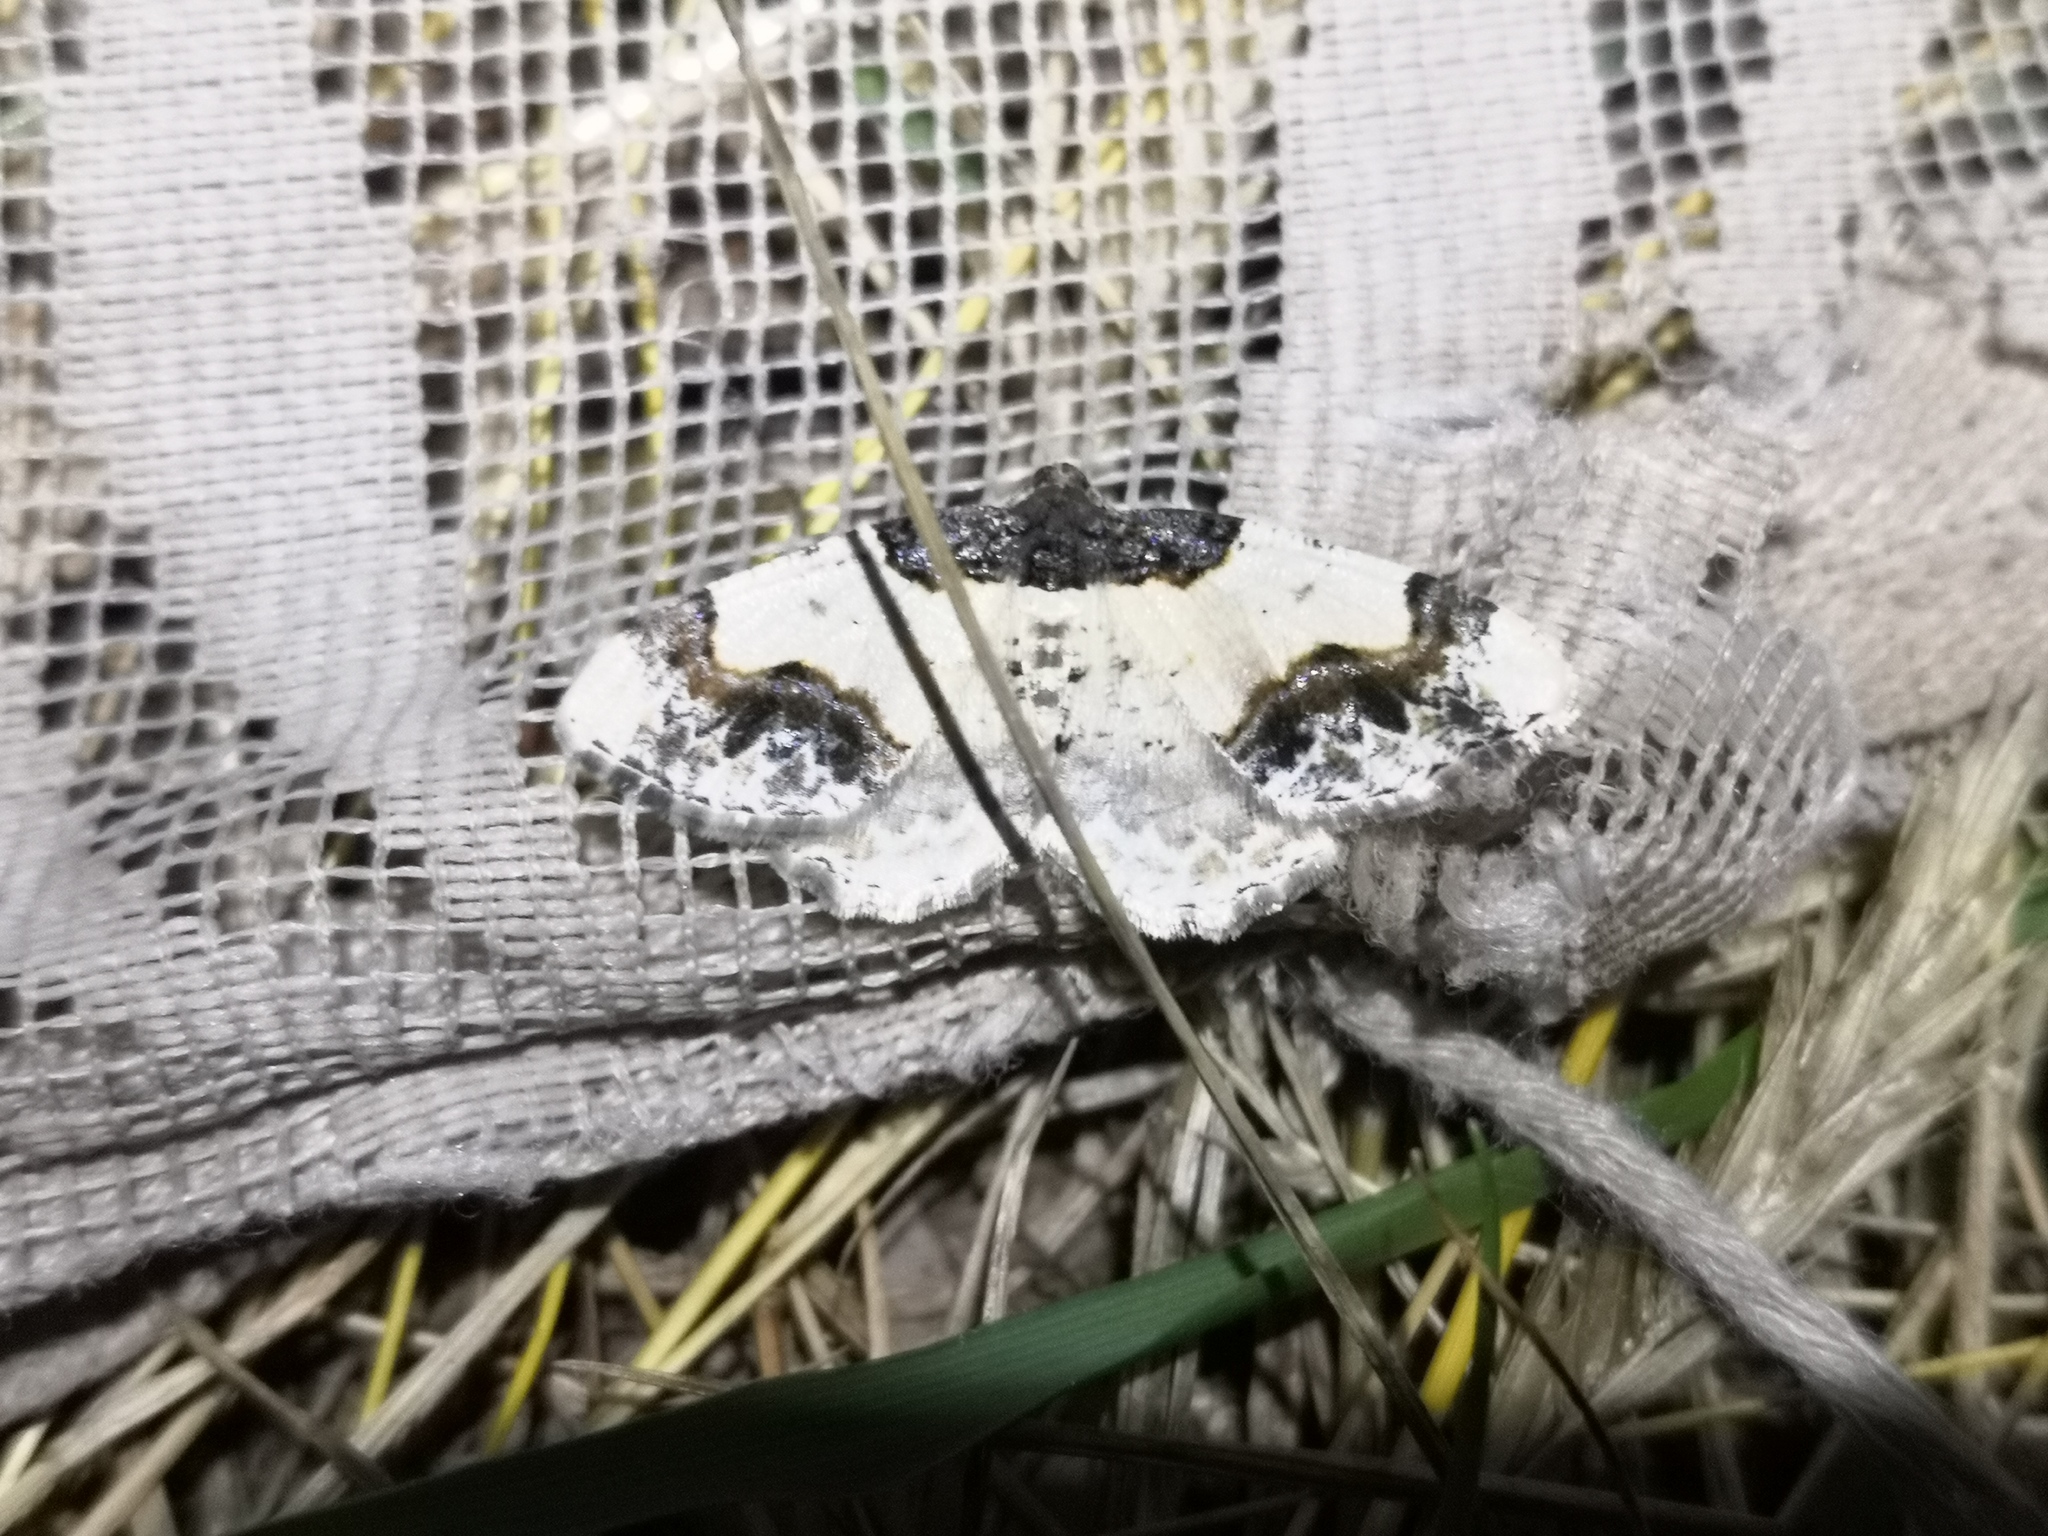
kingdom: Animalia
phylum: Arthropoda
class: Insecta
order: Lepidoptera
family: Geometridae
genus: Ligdia
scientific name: Ligdia adustata
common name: Scorched carpet
